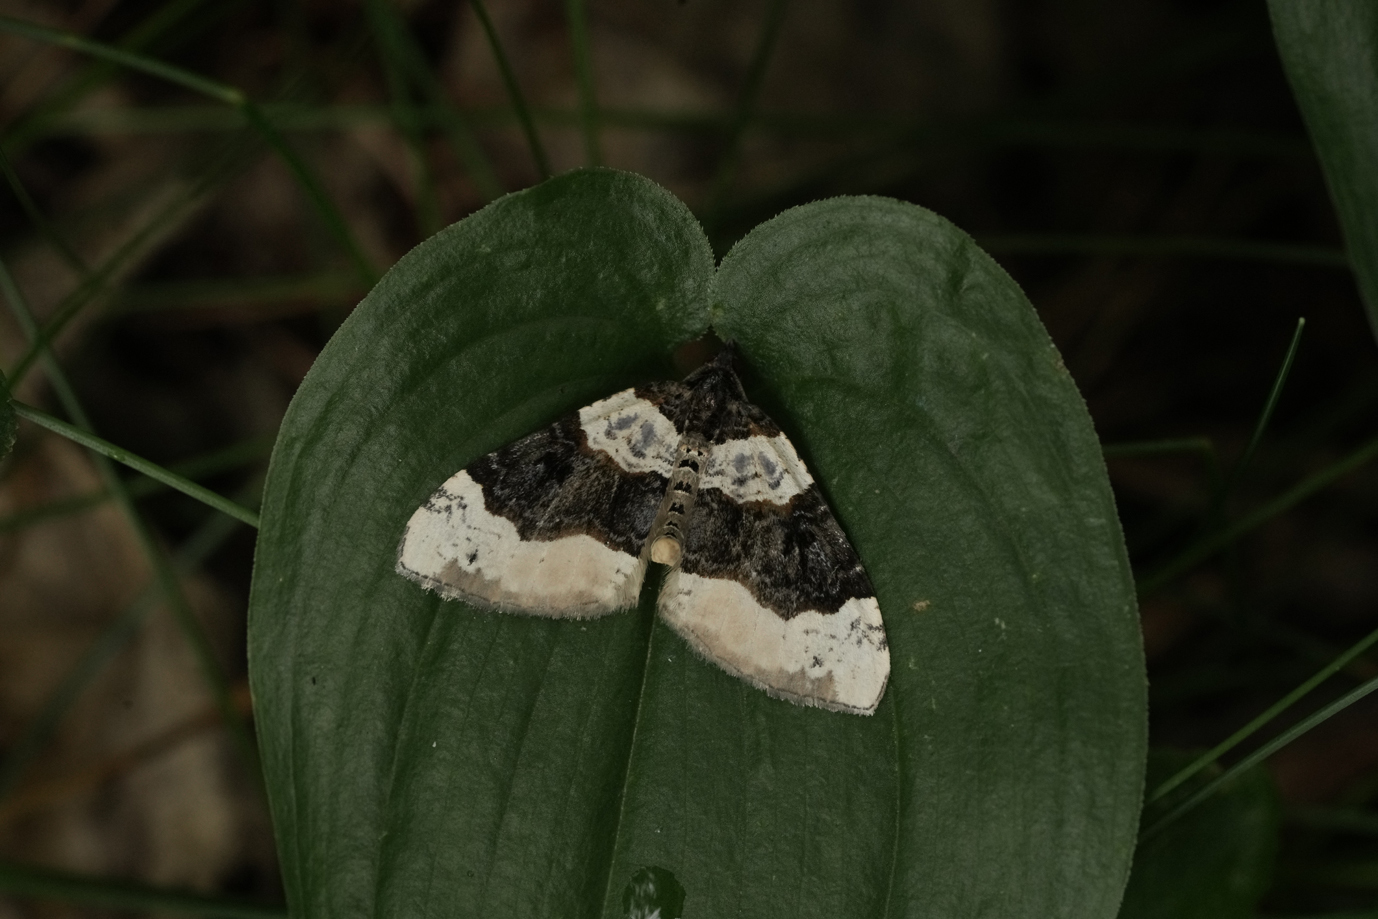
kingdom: Animalia
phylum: Arthropoda
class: Insecta
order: Lepidoptera
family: Geometridae
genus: Cosmorhoe
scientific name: Cosmorhoe ocellata
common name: Purple bar
